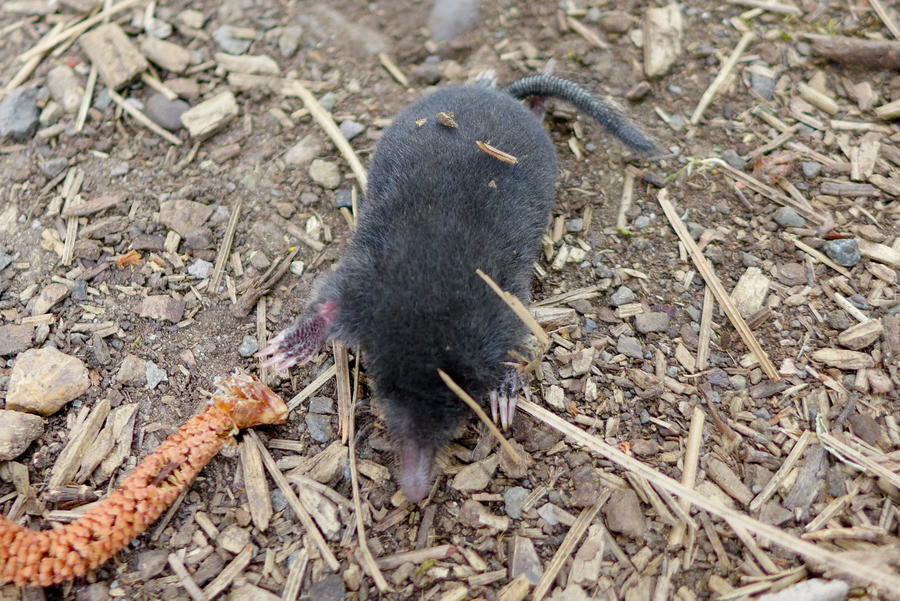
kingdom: Animalia
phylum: Chordata
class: Mammalia
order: Soricomorpha
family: Talpidae
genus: Neurotrichus
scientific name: Neurotrichus gibbsii
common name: American shrew mole
